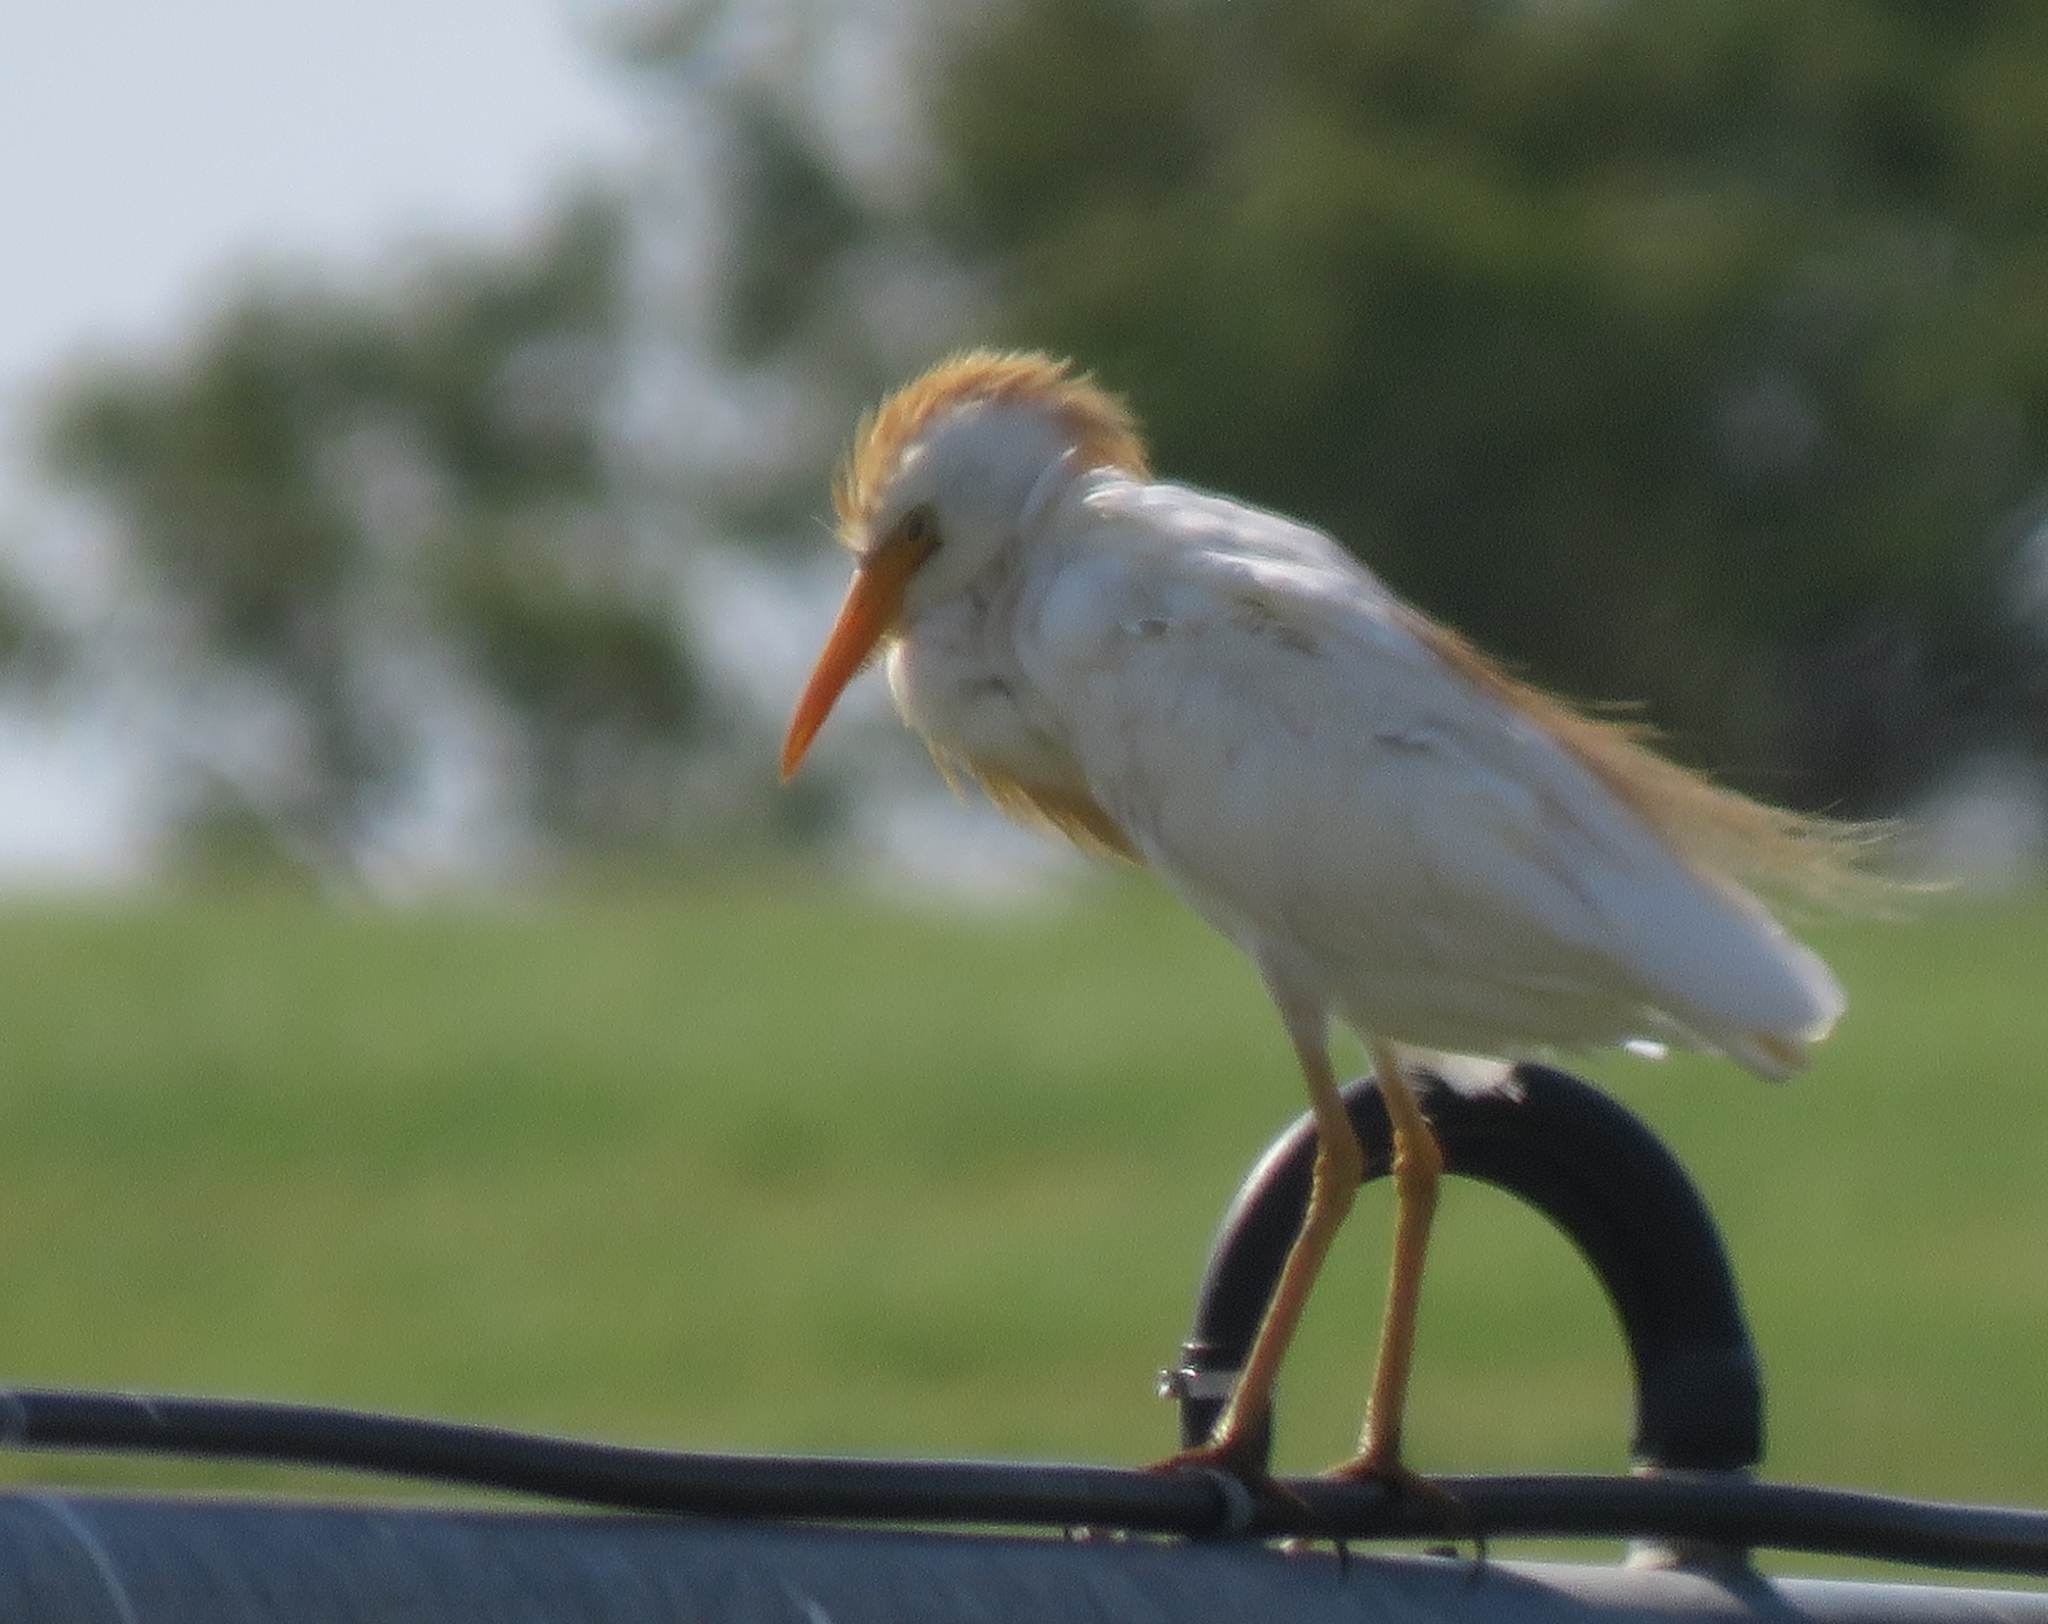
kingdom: Animalia
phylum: Chordata
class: Aves
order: Pelecaniformes
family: Ardeidae
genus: Bubulcus
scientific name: Bubulcus ibis
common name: Cattle egret
